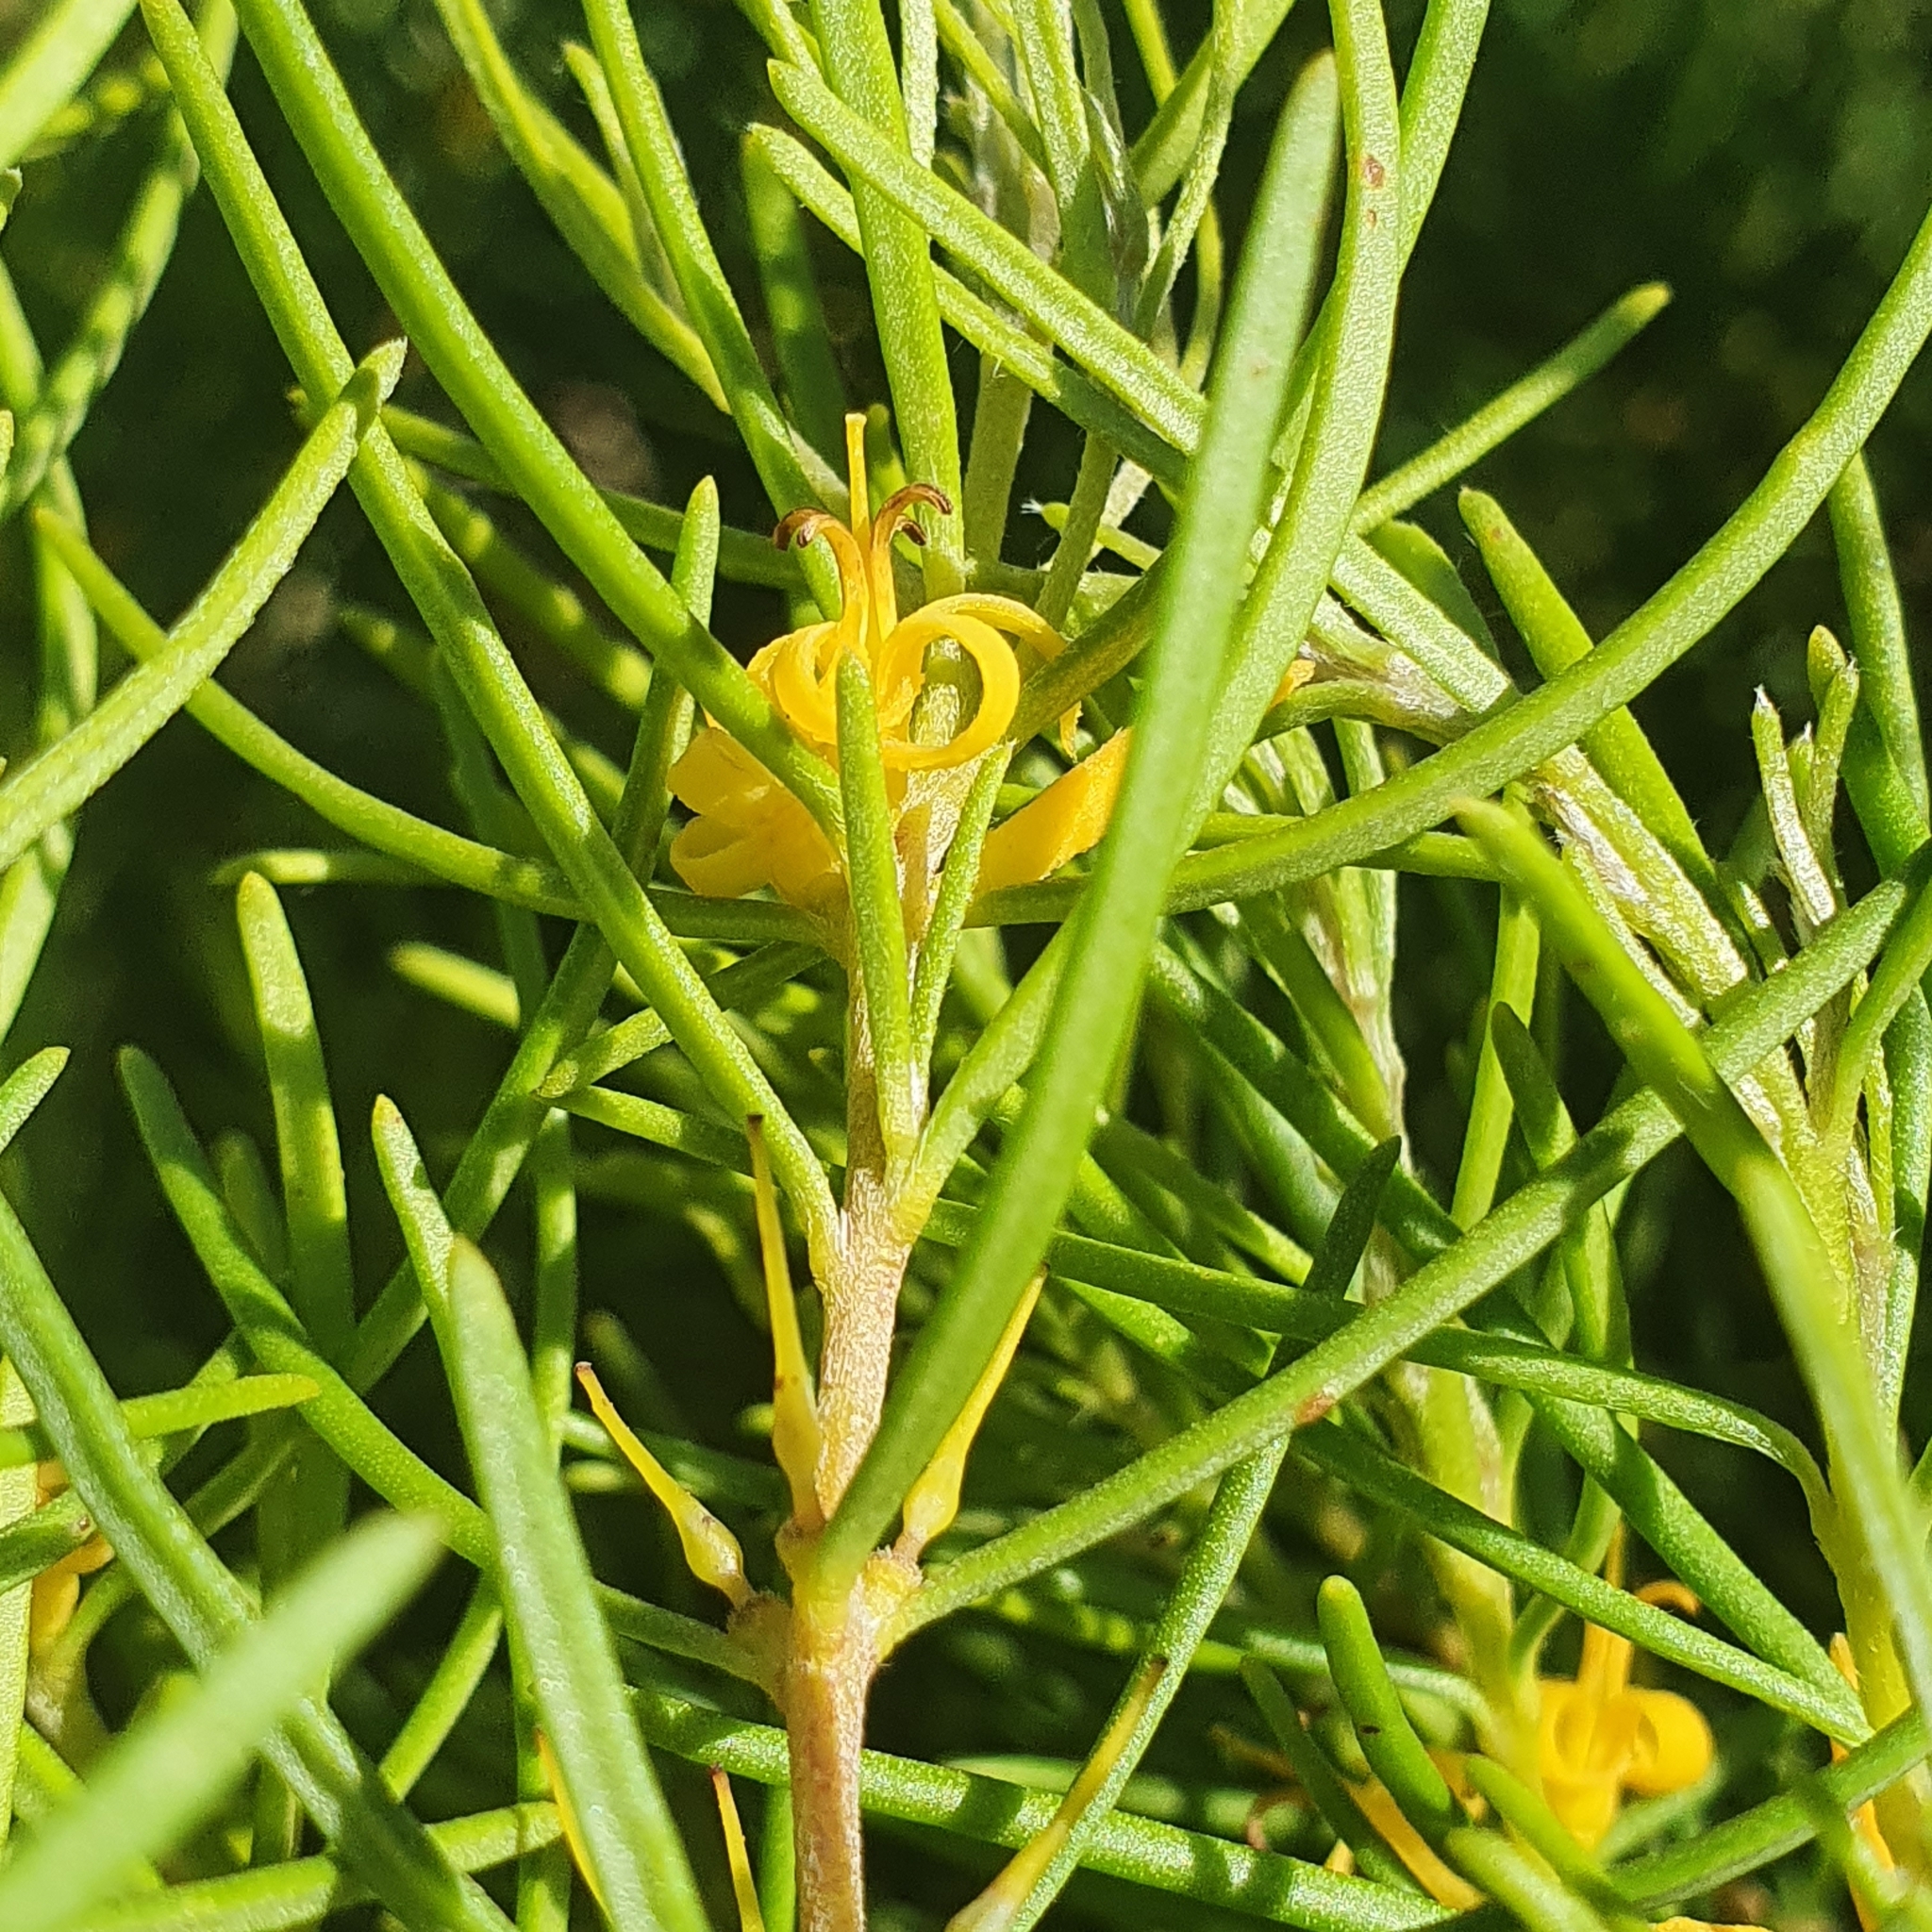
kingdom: Plantae
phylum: Tracheophyta
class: Magnoliopsida
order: Proteales
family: Proteaceae
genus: Persoonia
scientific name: Persoonia mollis
